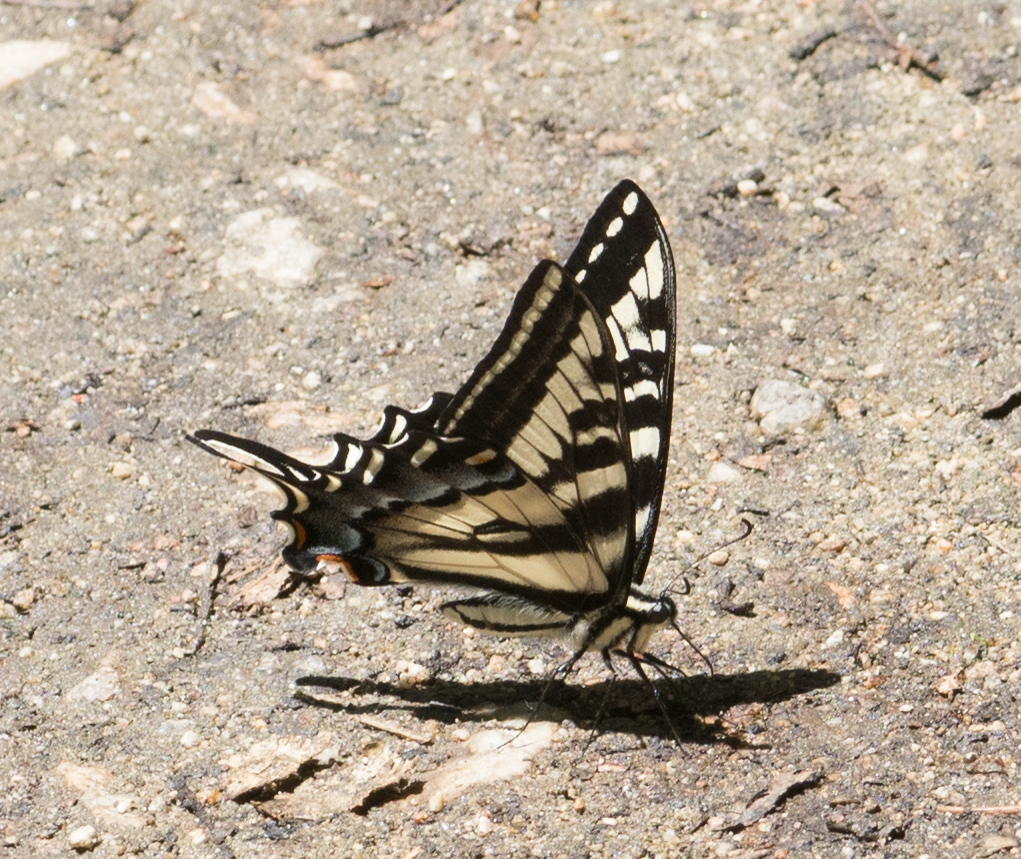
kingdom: Animalia
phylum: Arthropoda
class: Insecta
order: Lepidoptera
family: Papilionidae
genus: Papilio
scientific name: Papilio eurymedon
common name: Pale tiger swallowtail
